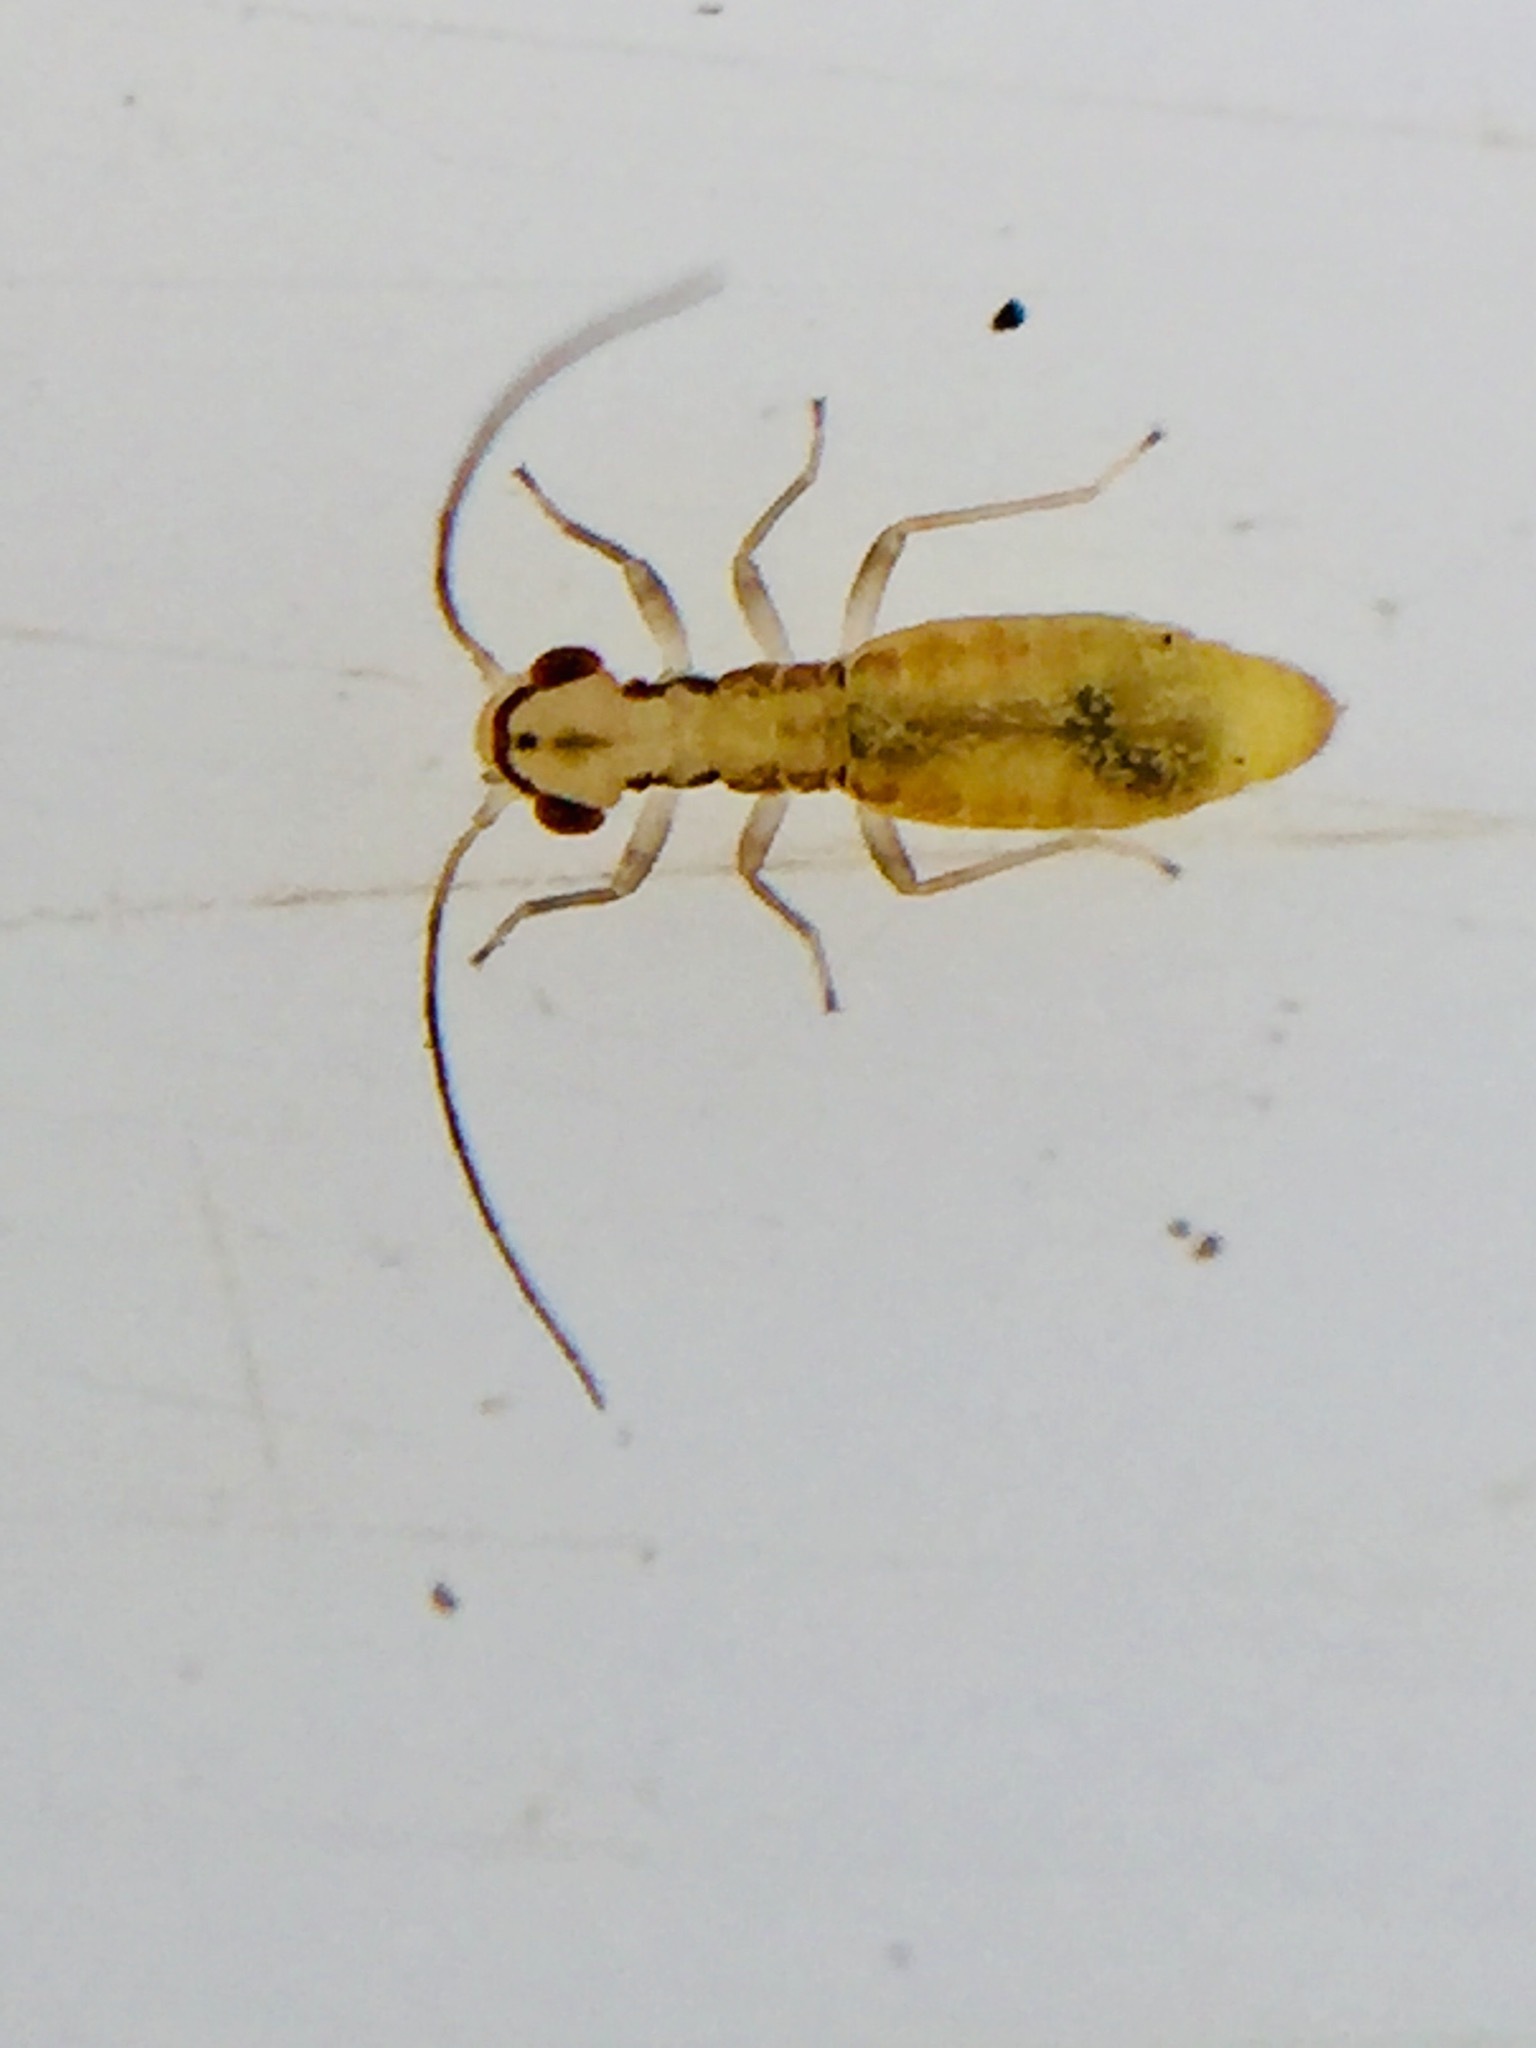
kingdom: Animalia
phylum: Arthropoda
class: Insecta
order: Psocodea
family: Caeciliusidae
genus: Graminacaecilius
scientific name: Graminacaecilius frontalis
